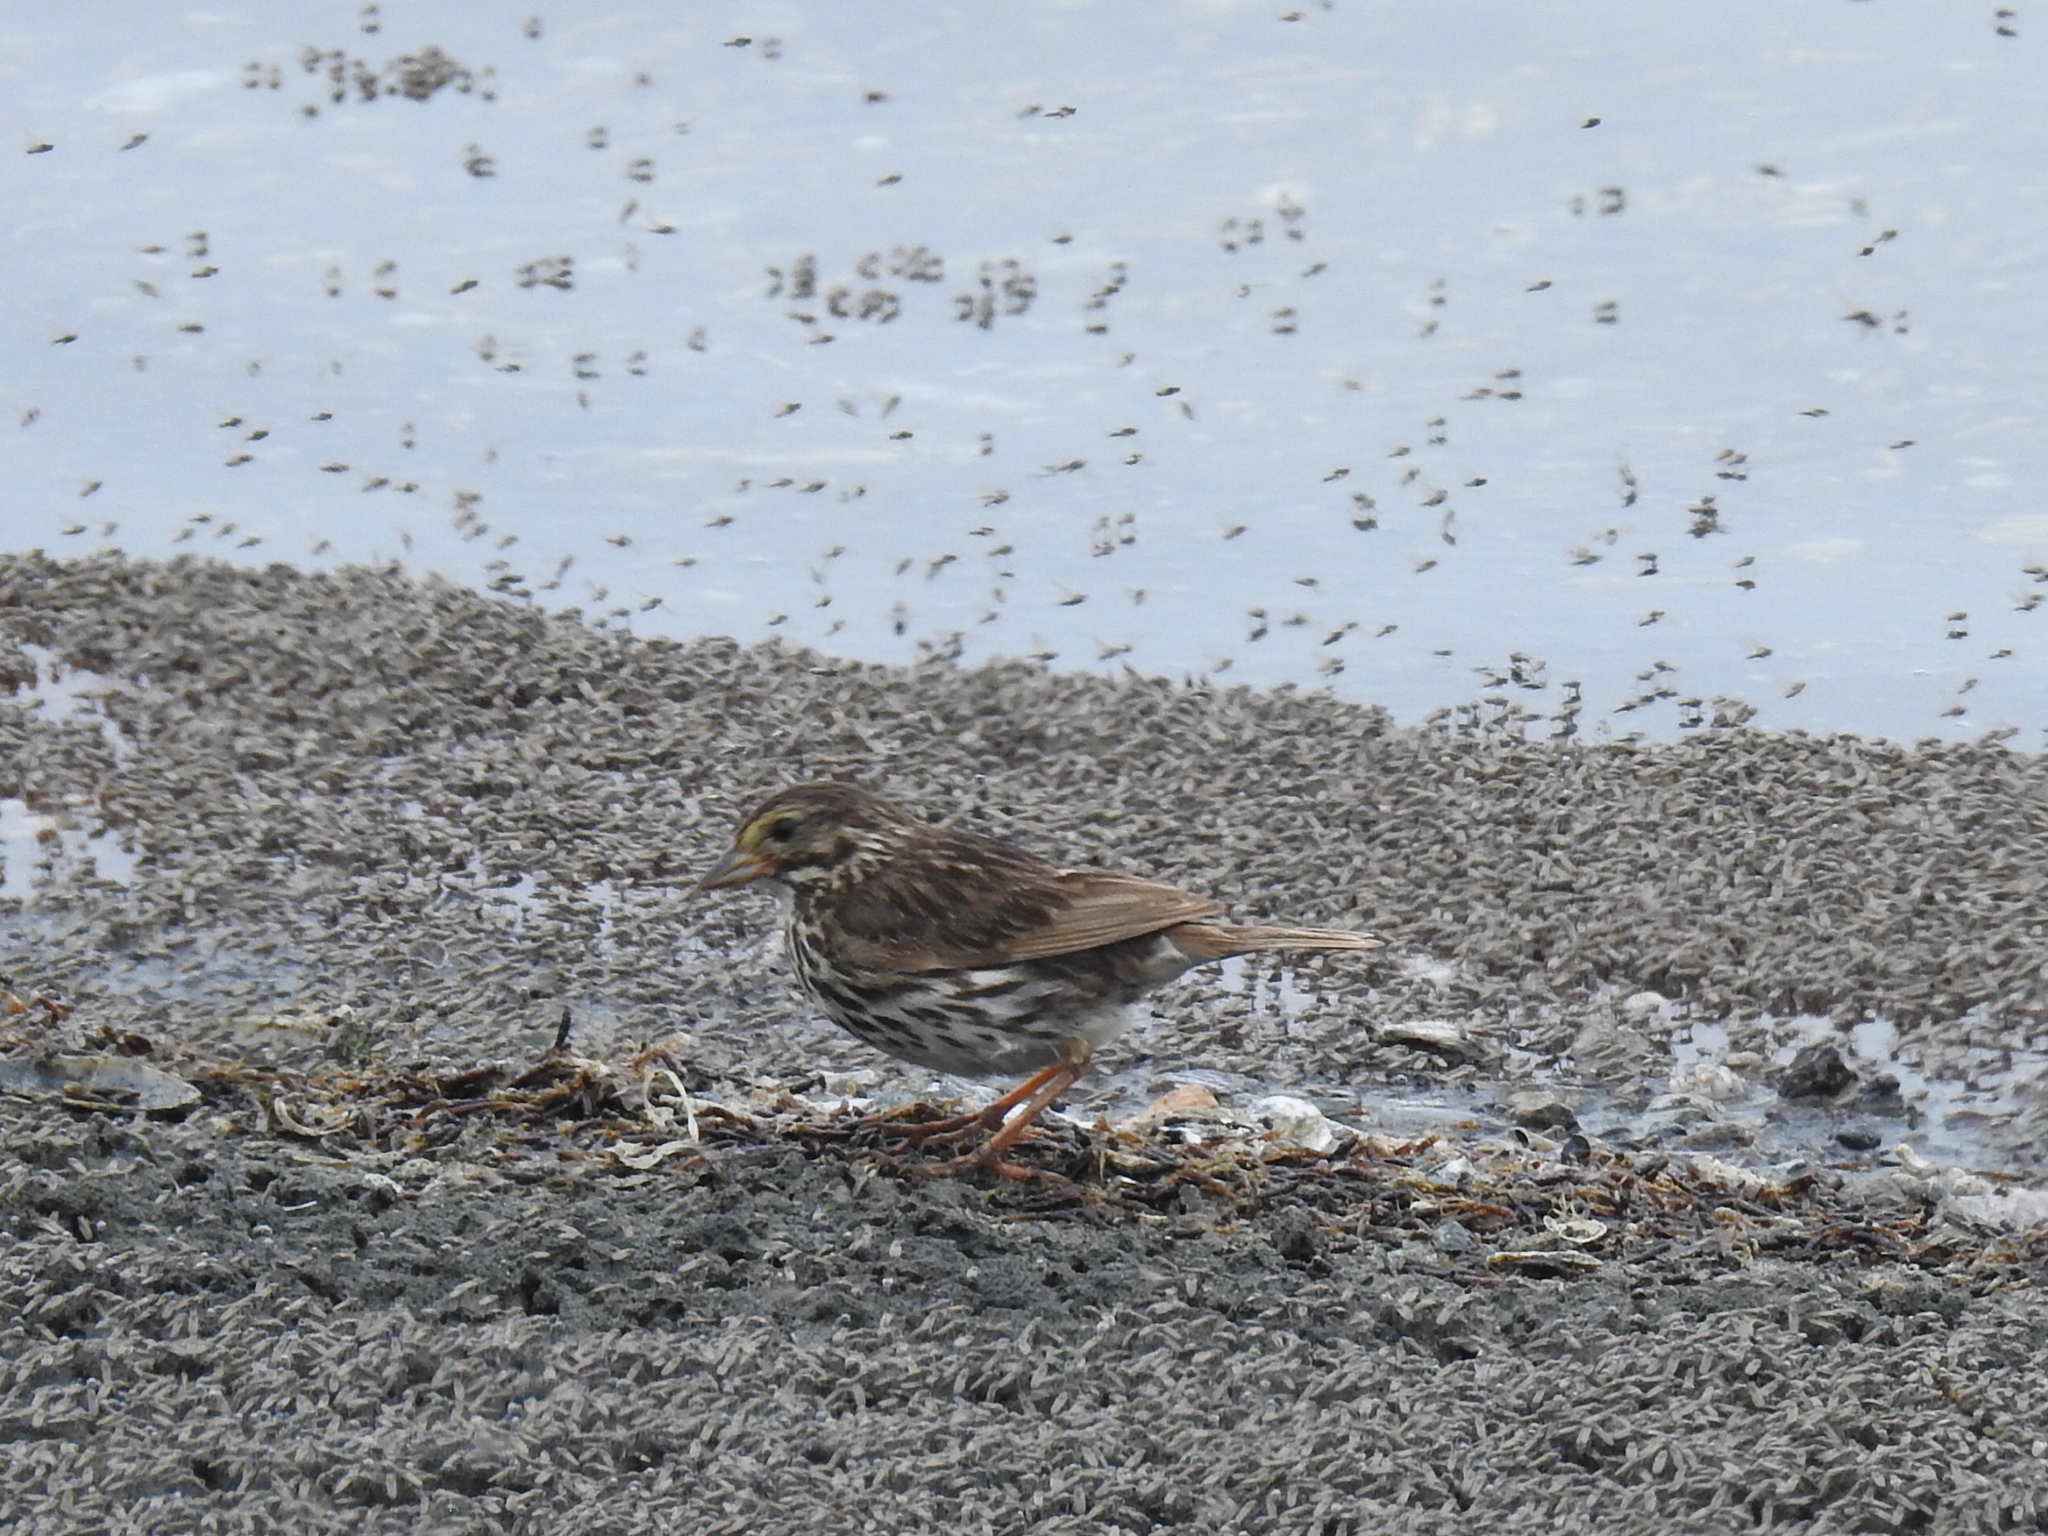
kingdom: Animalia
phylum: Chordata
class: Aves
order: Passeriformes
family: Passerellidae
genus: Passerculus
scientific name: Passerculus sandwichensis
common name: Savannah sparrow
